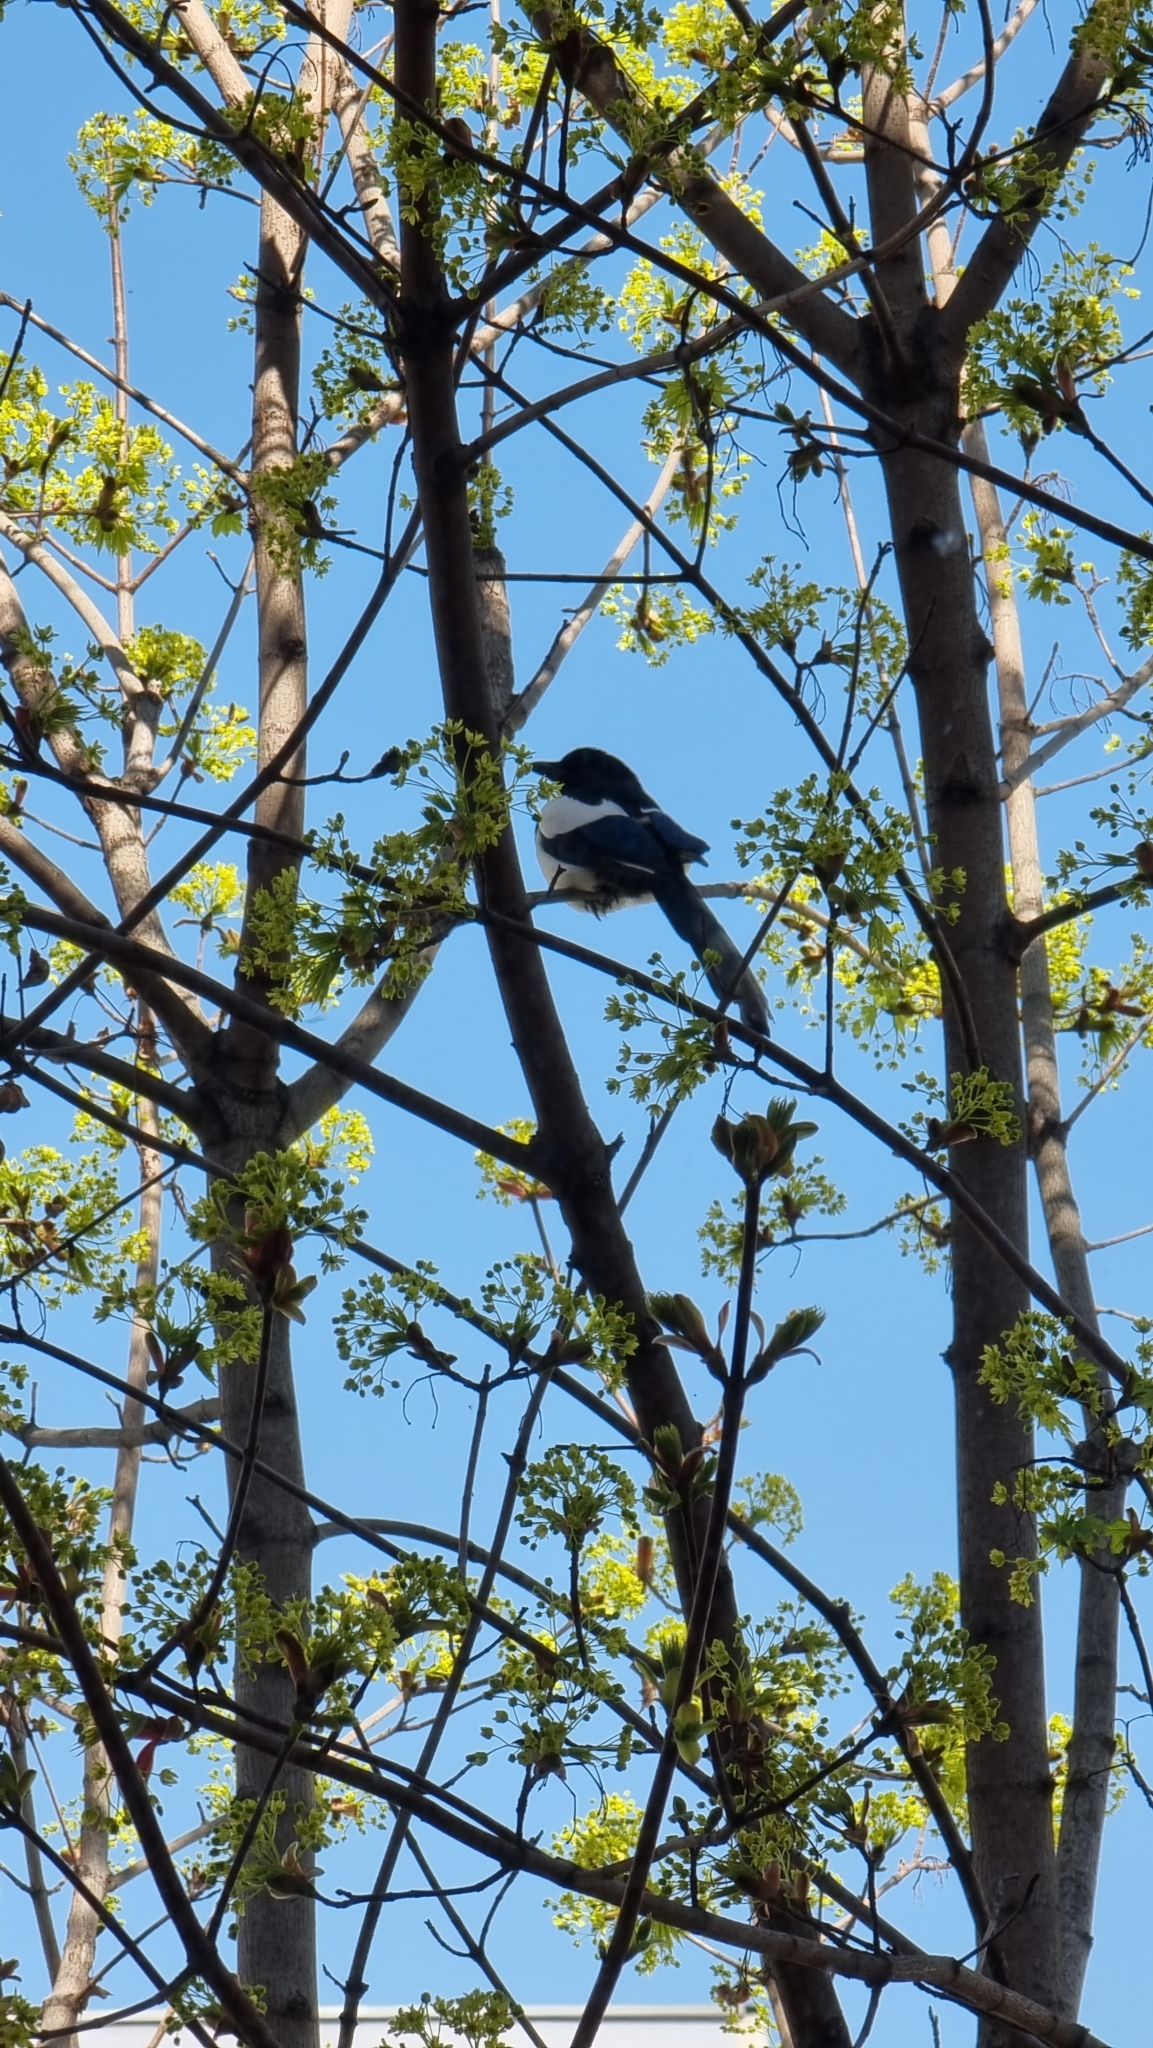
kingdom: Animalia
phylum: Chordata
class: Aves
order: Passeriformes
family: Corvidae
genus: Pica
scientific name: Pica pica
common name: Eurasian magpie
